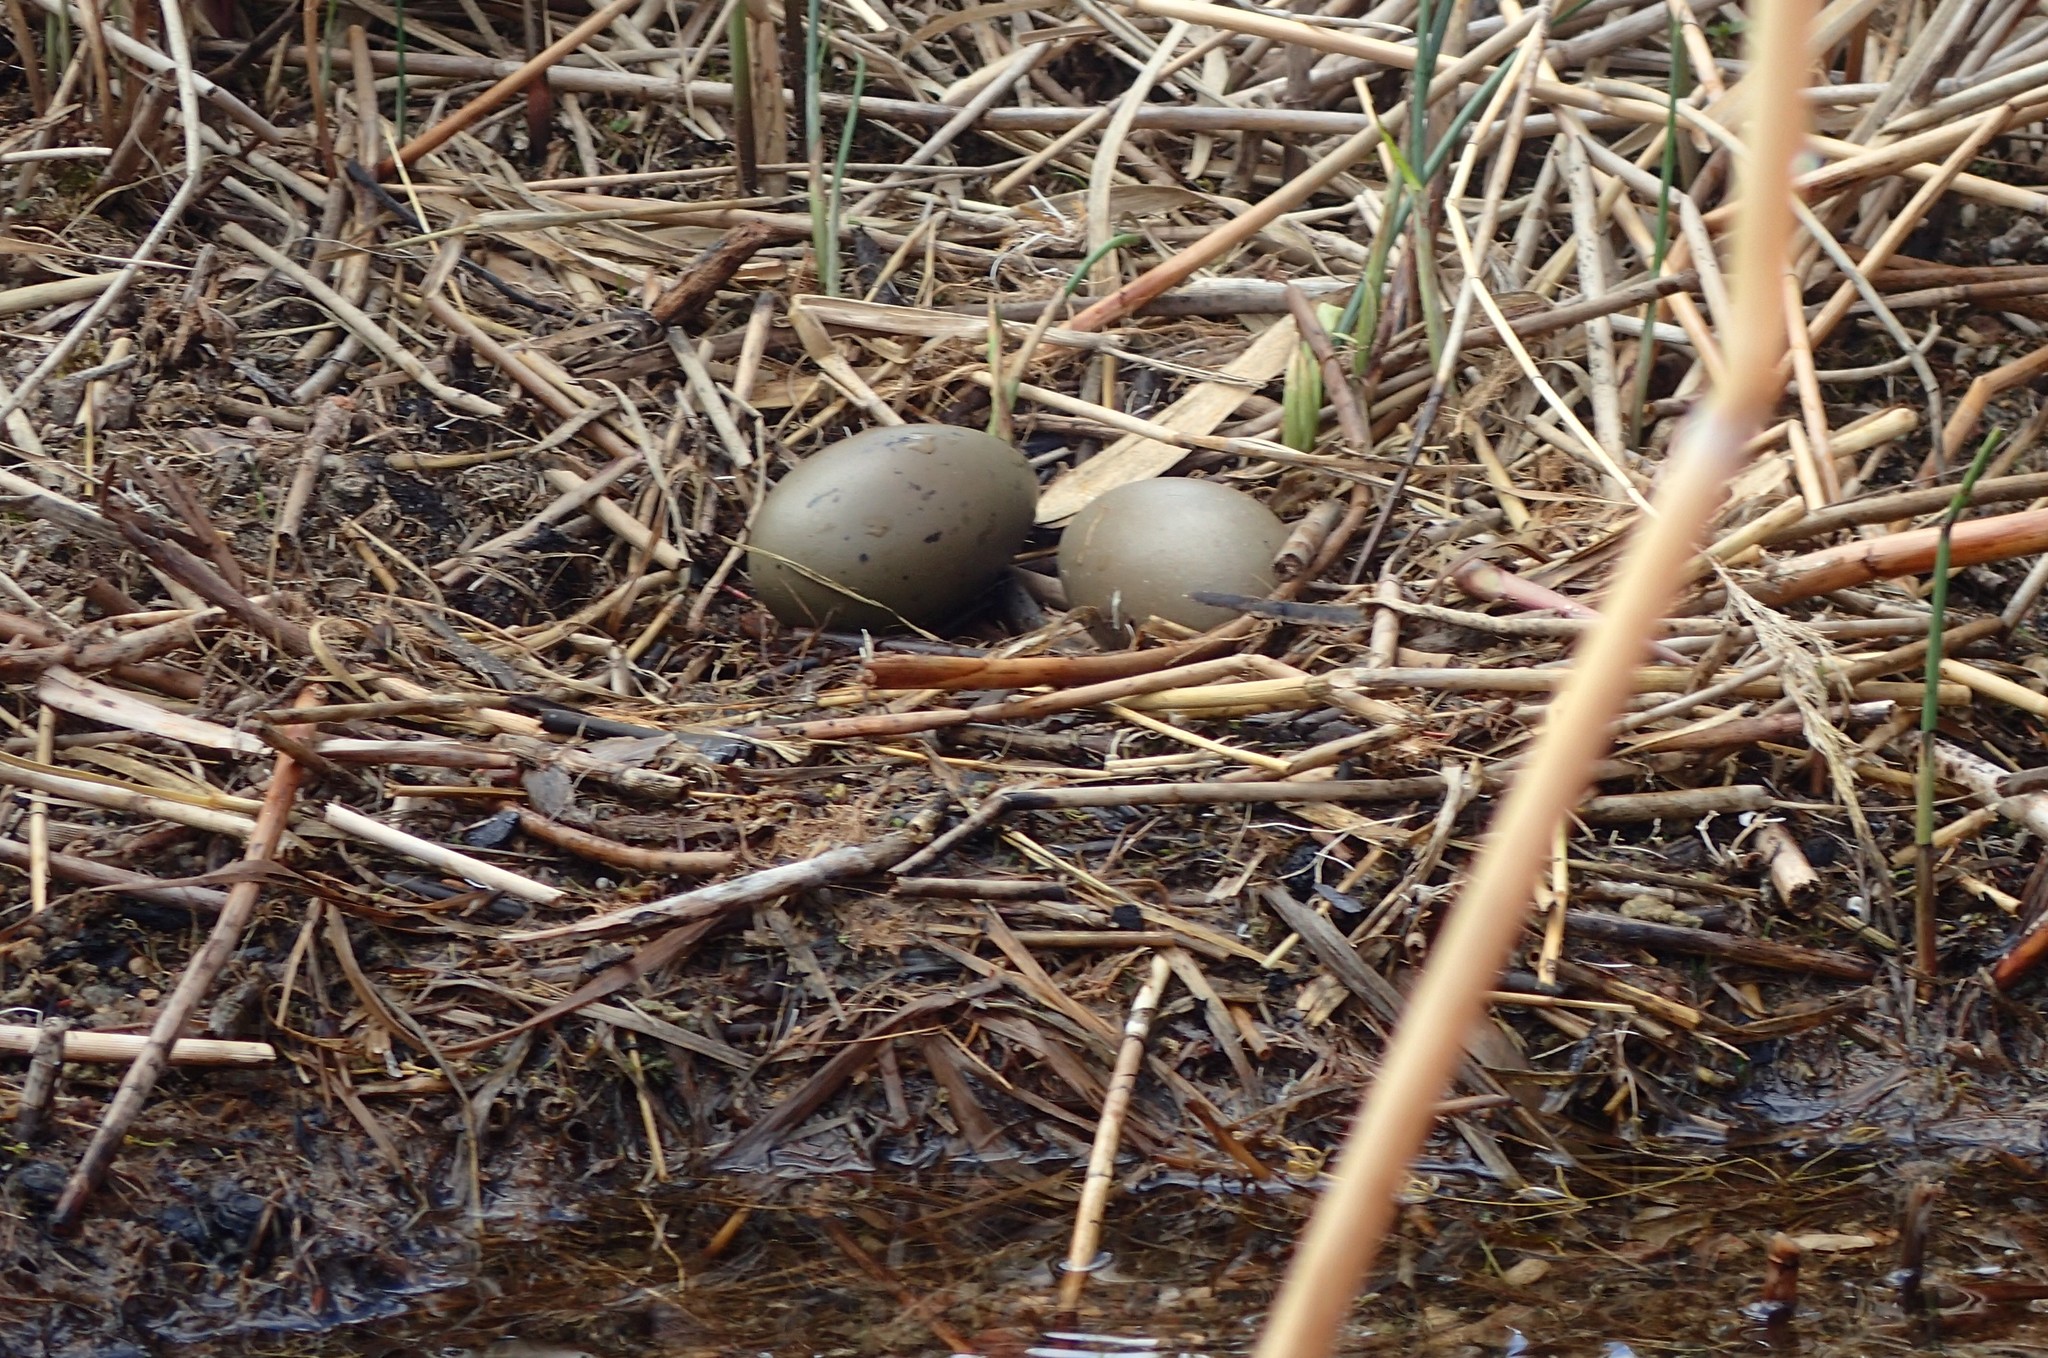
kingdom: Animalia
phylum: Chordata
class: Aves
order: Gaviiformes
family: Gaviidae
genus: Gavia
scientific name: Gavia immer
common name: Common loon
